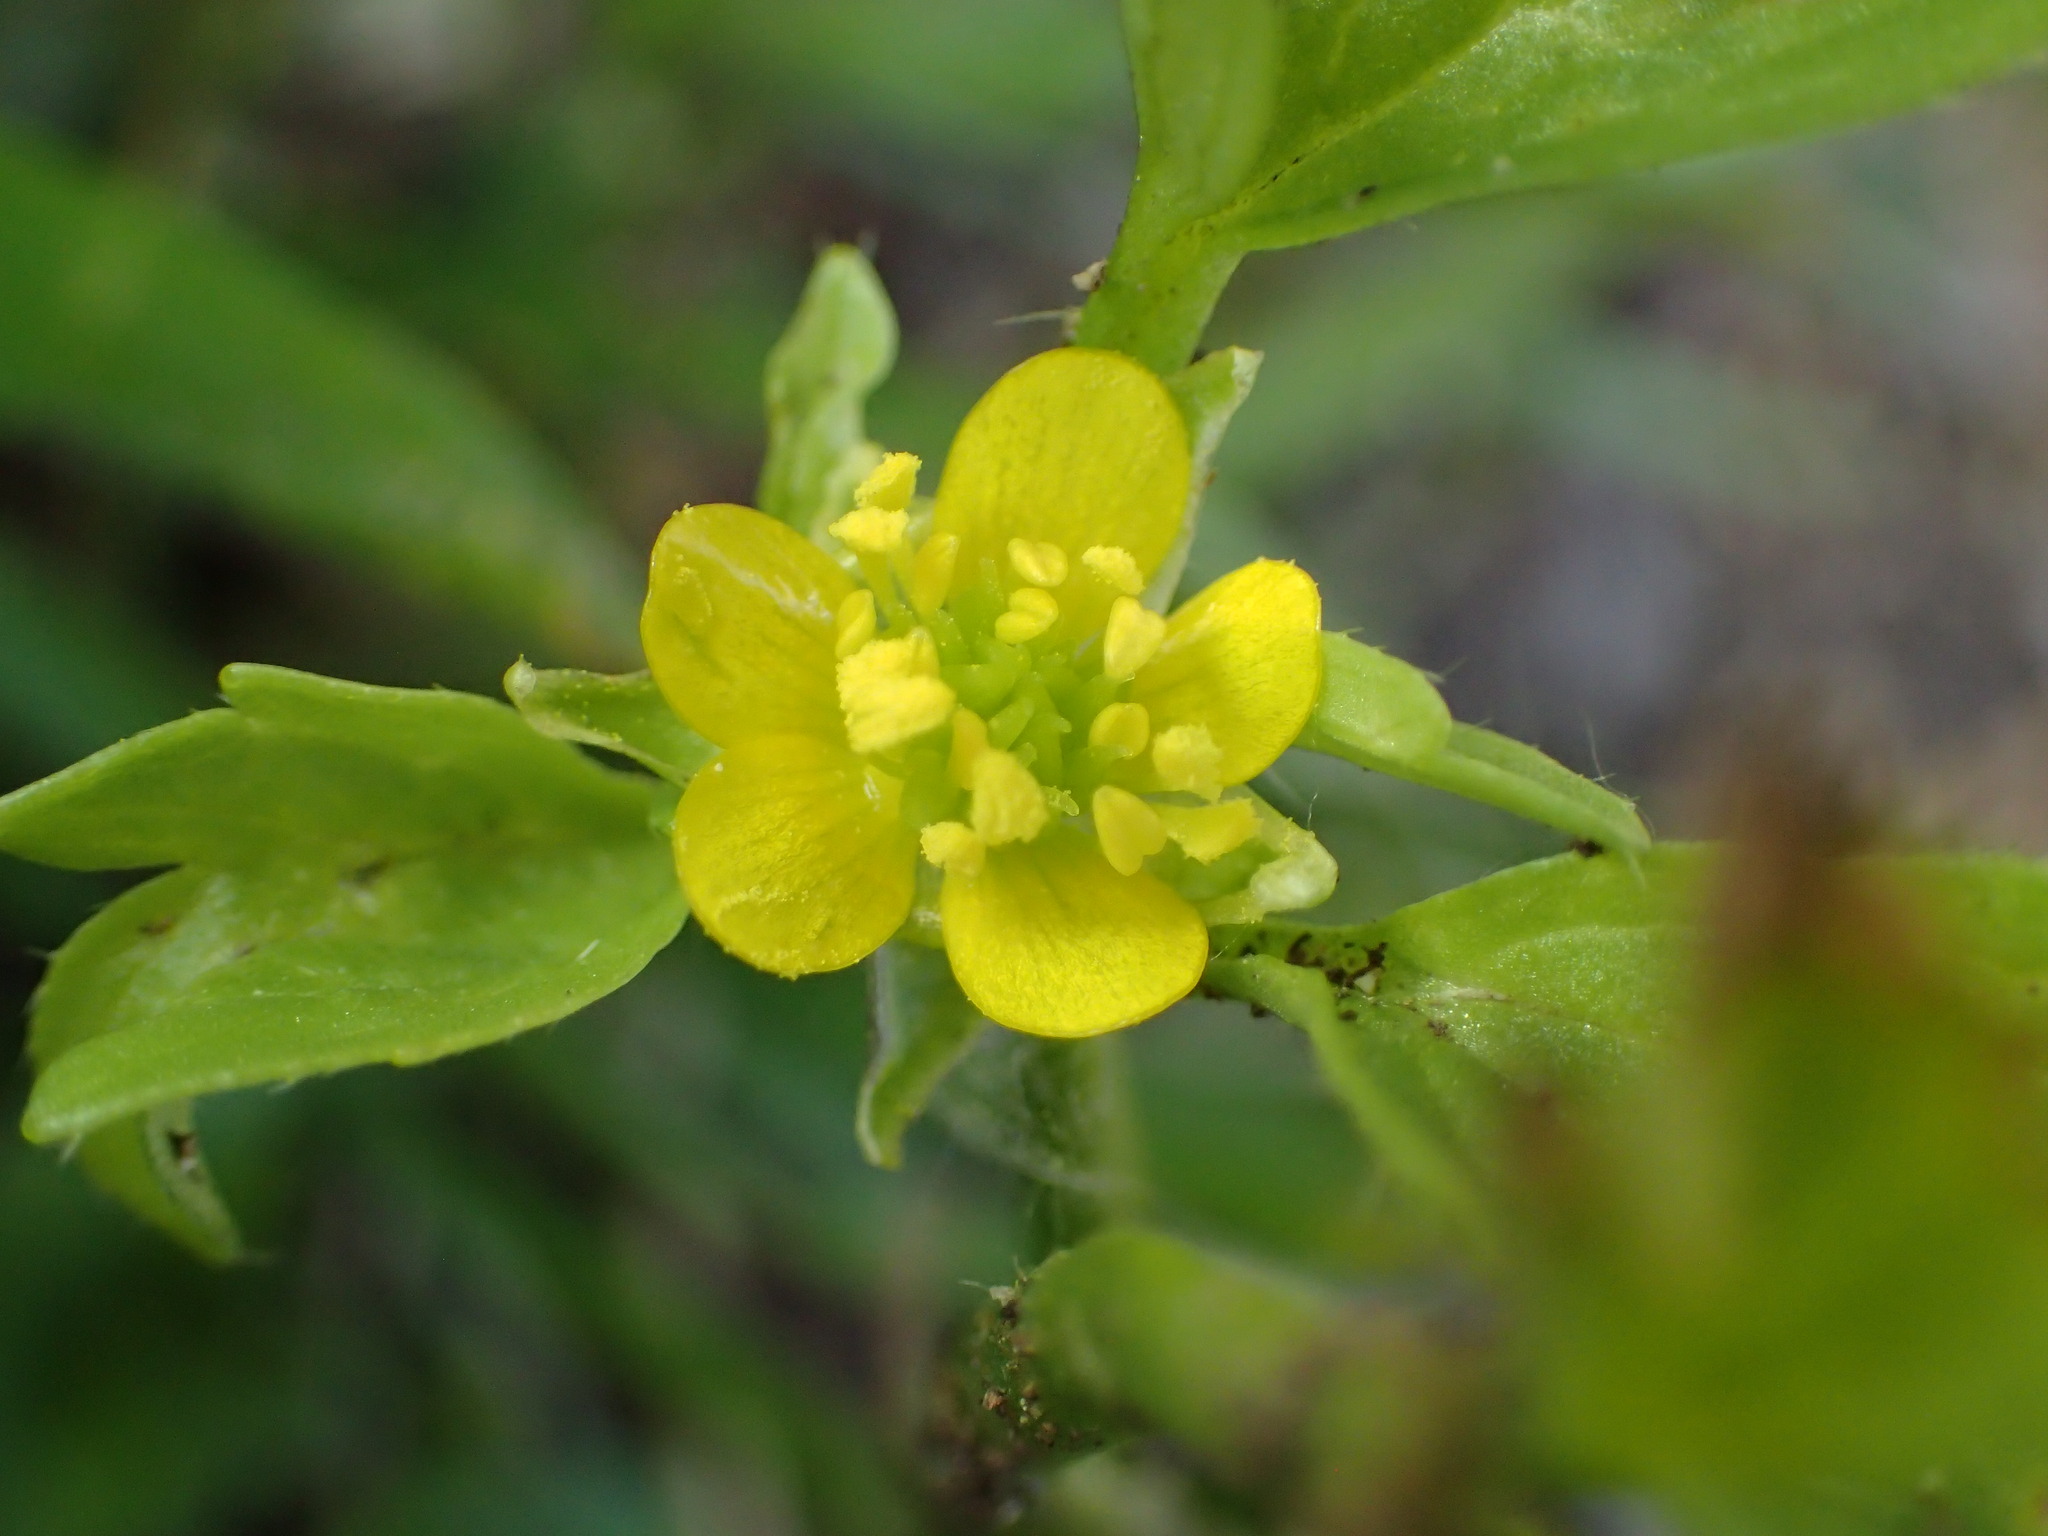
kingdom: Plantae
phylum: Tracheophyta
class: Magnoliopsida
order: Ranunculales
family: Ranunculaceae
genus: Ranunculus
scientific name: Ranunculus muricatus
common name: Rough-fruited buttercup
